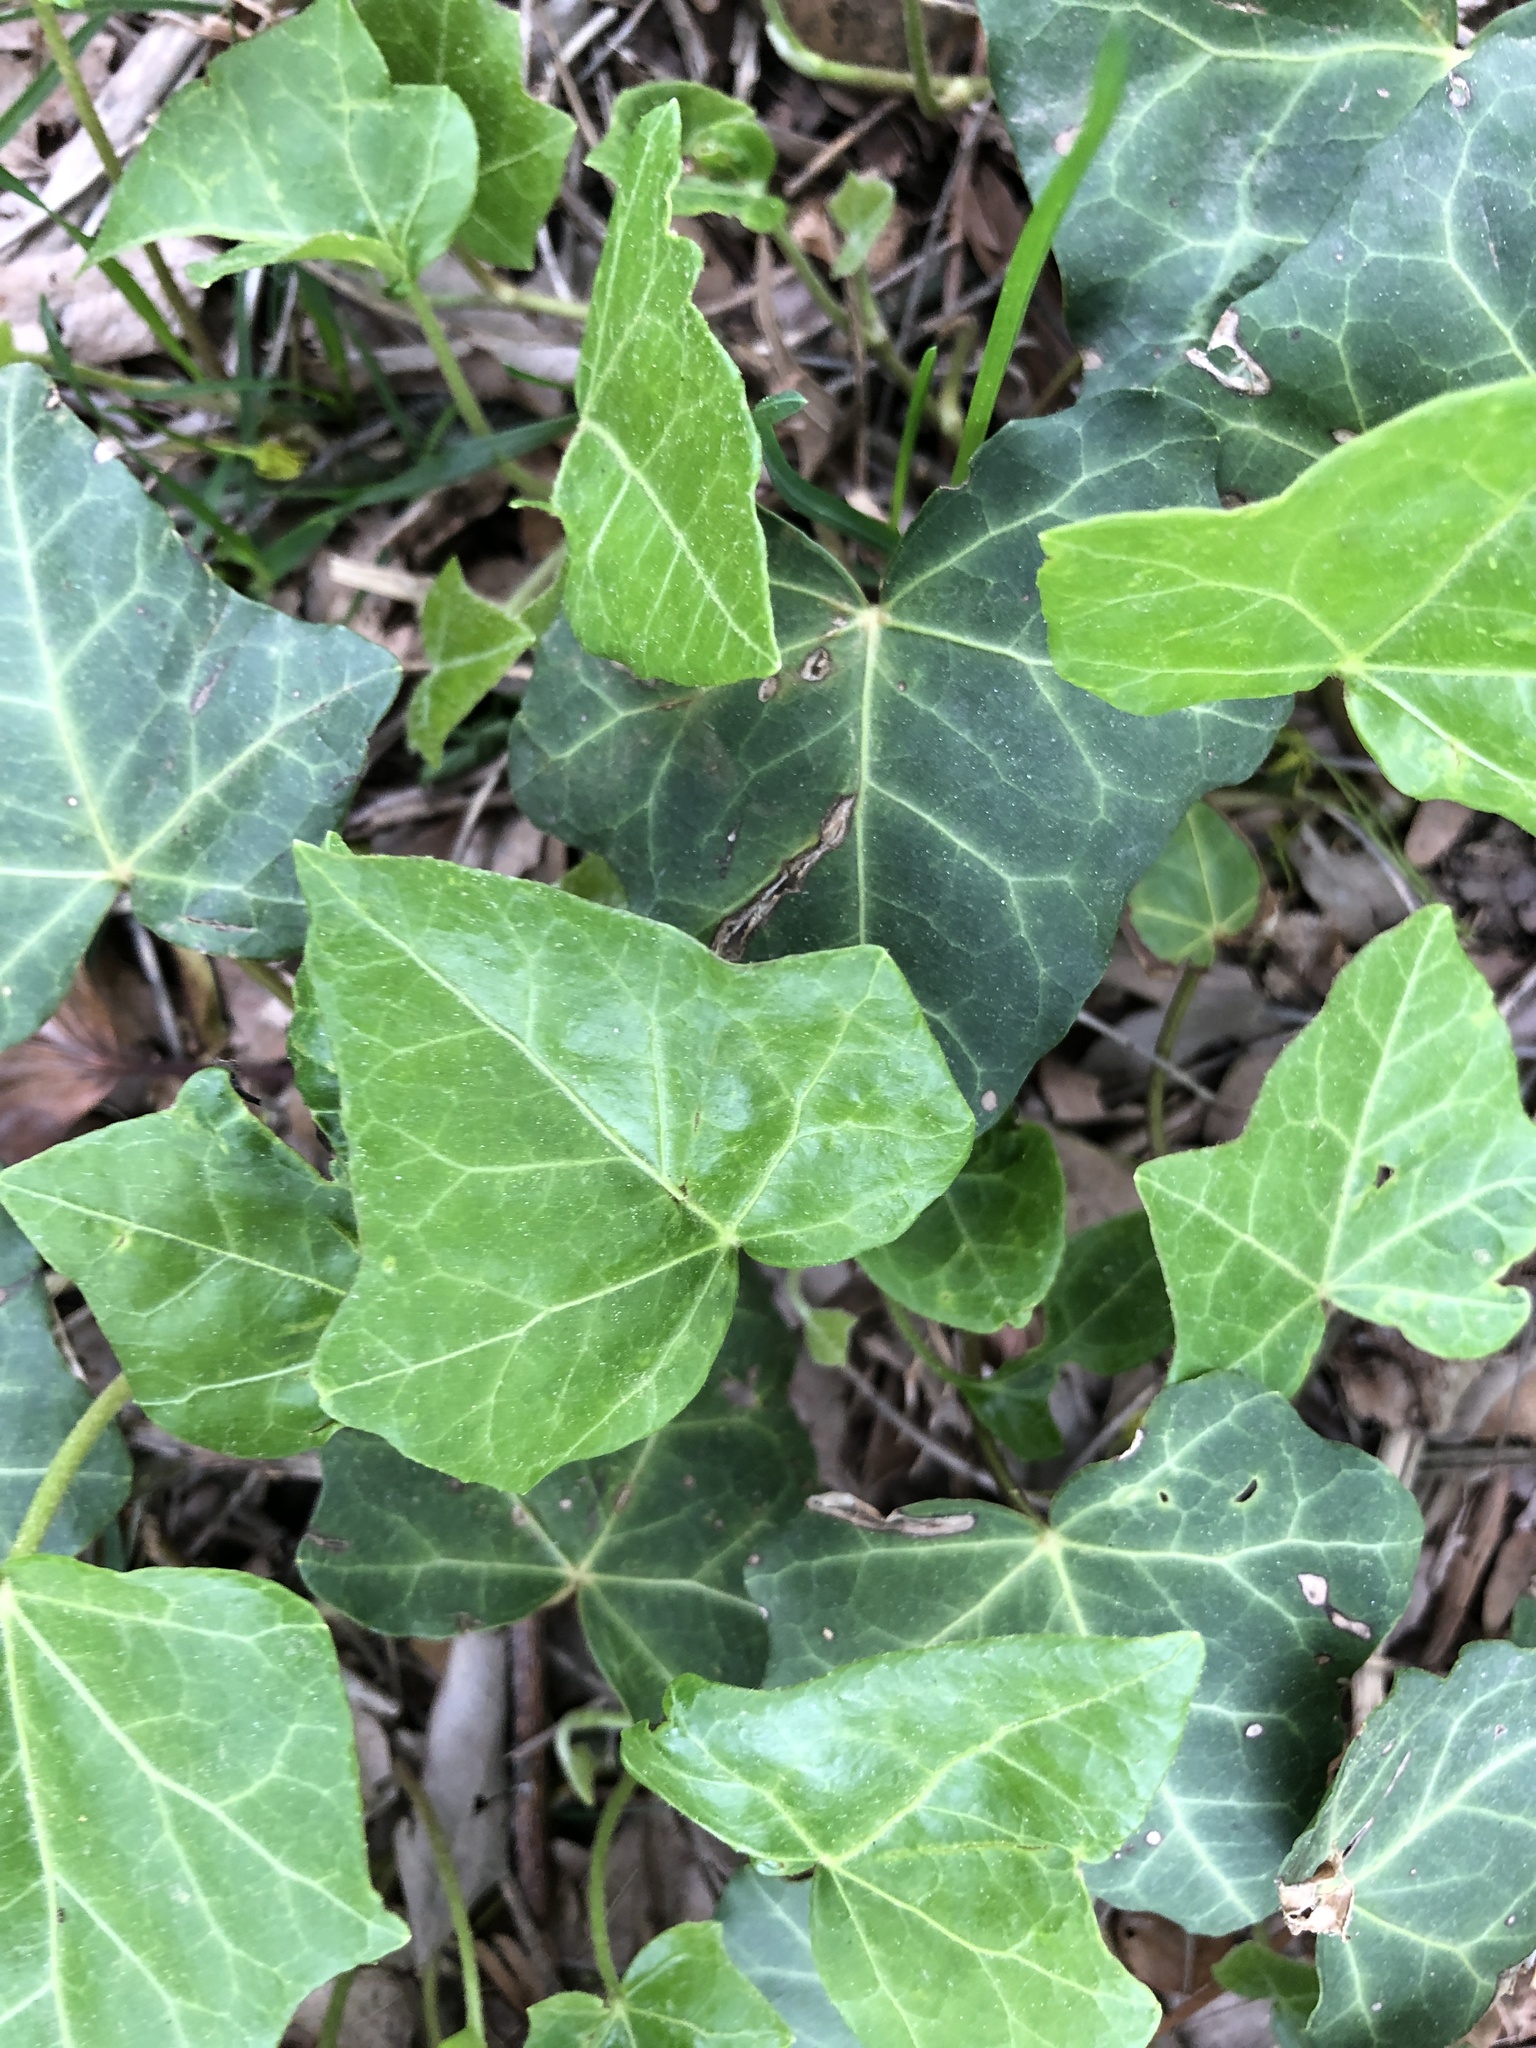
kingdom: Plantae
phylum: Tracheophyta
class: Magnoliopsida
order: Apiales
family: Araliaceae
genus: Hedera
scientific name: Hedera helix
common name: Ivy
